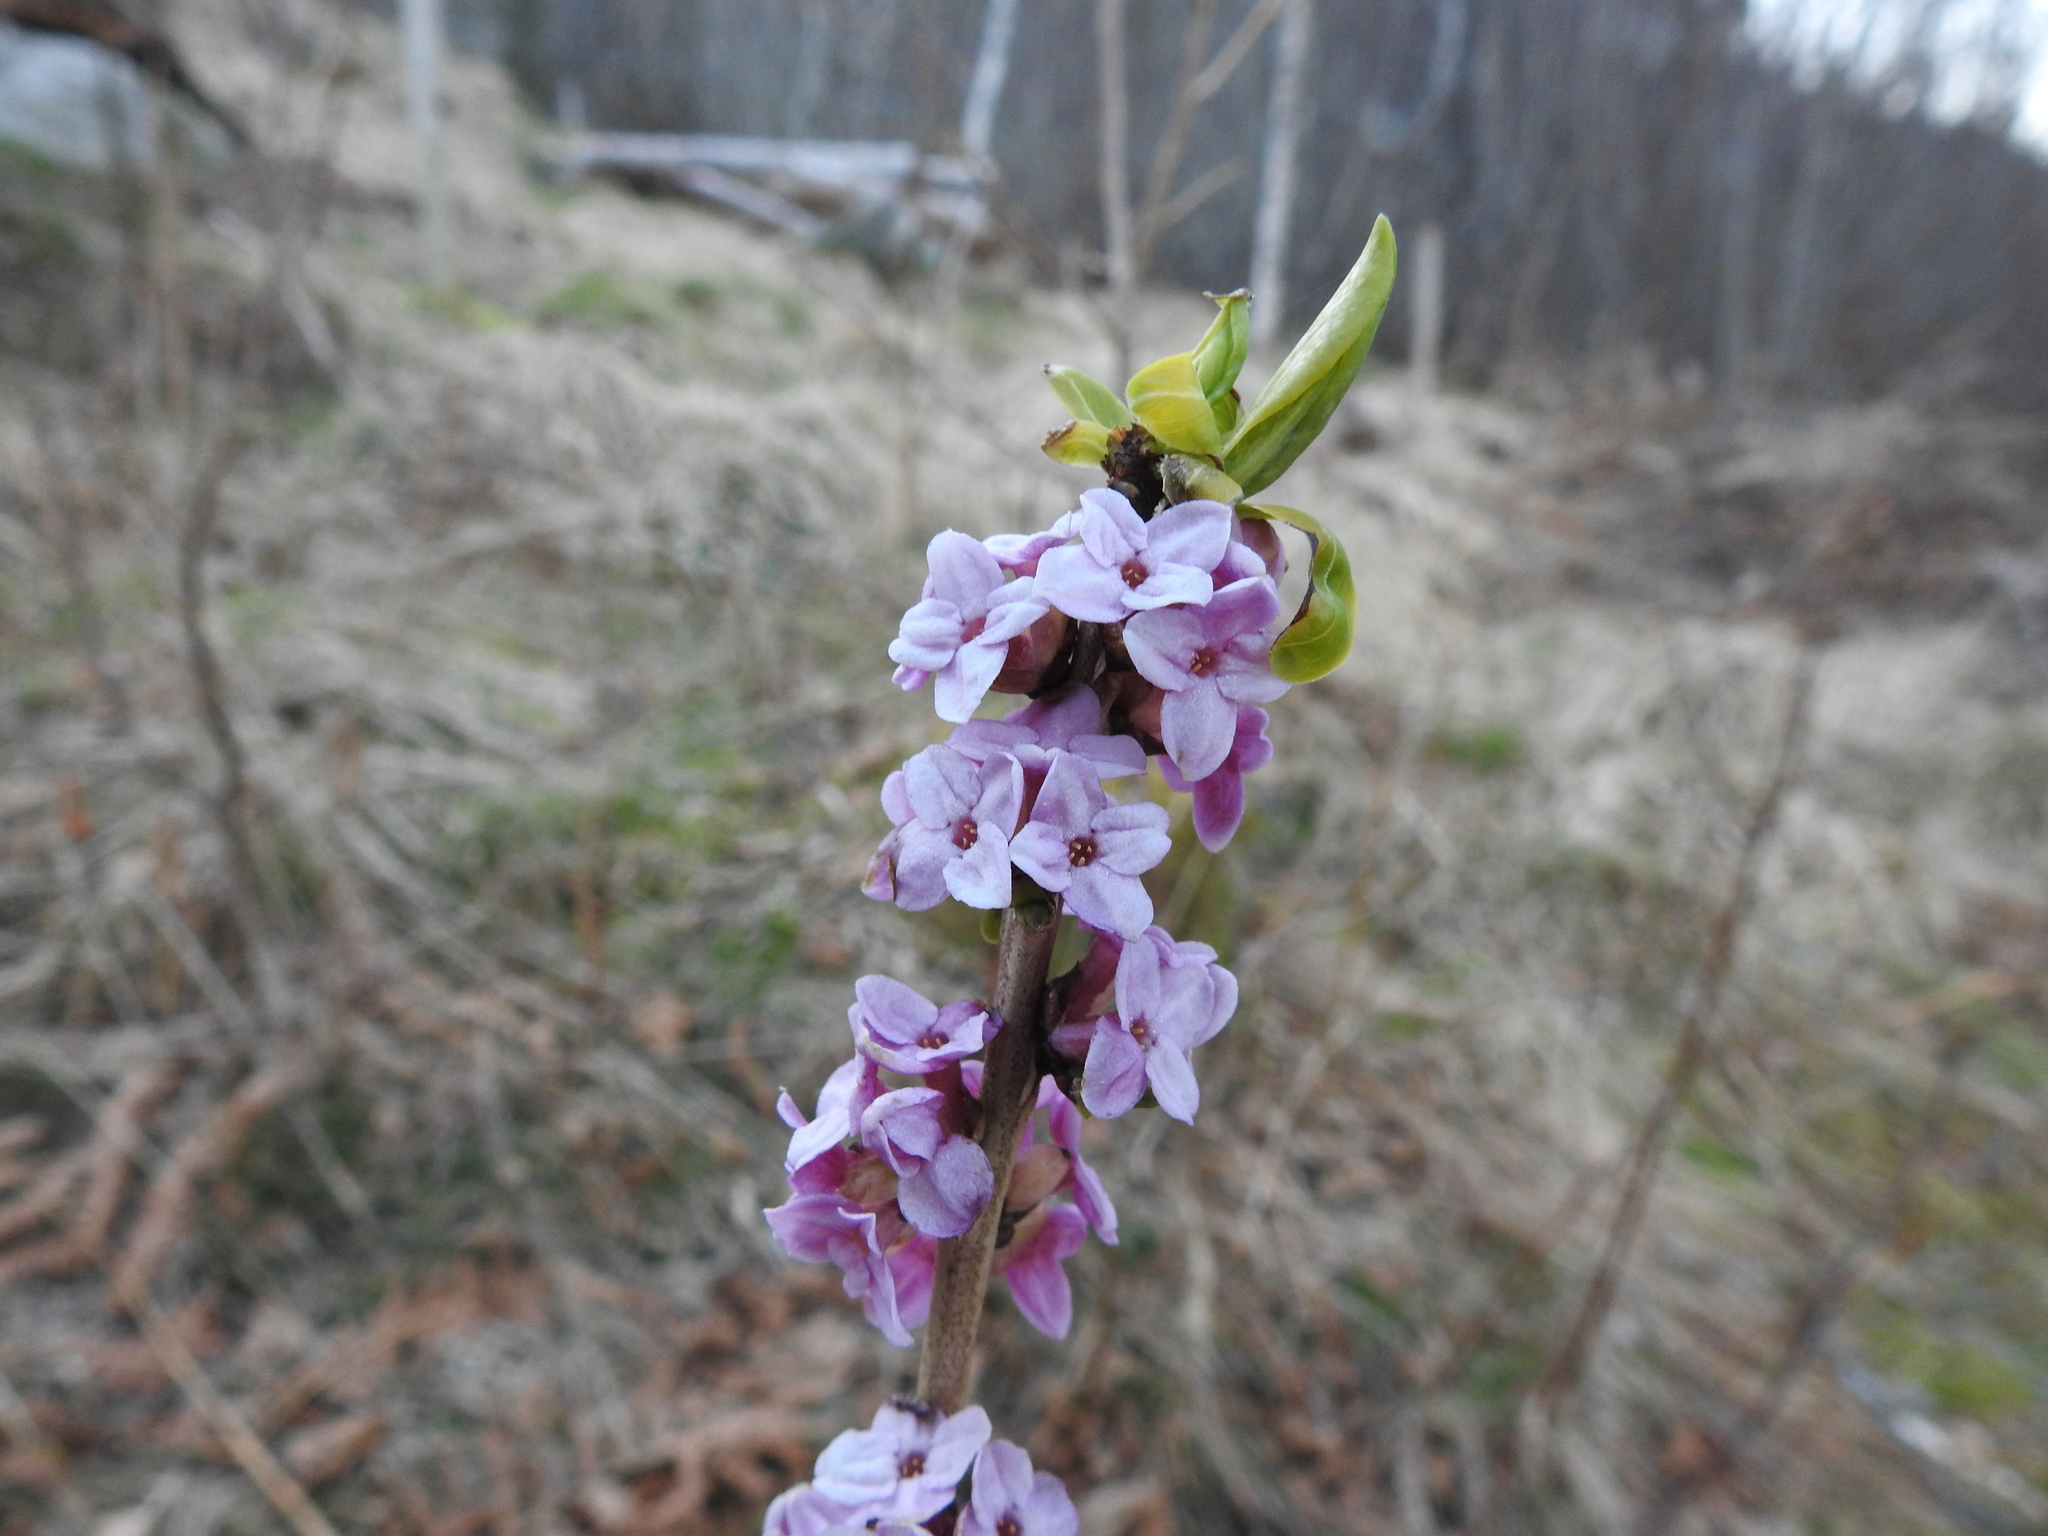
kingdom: Plantae
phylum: Tracheophyta
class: Magnoliopsida
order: Malvales
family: Thymelaeaceae
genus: Daphne
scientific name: Daphne mezereum
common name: Mezereon
